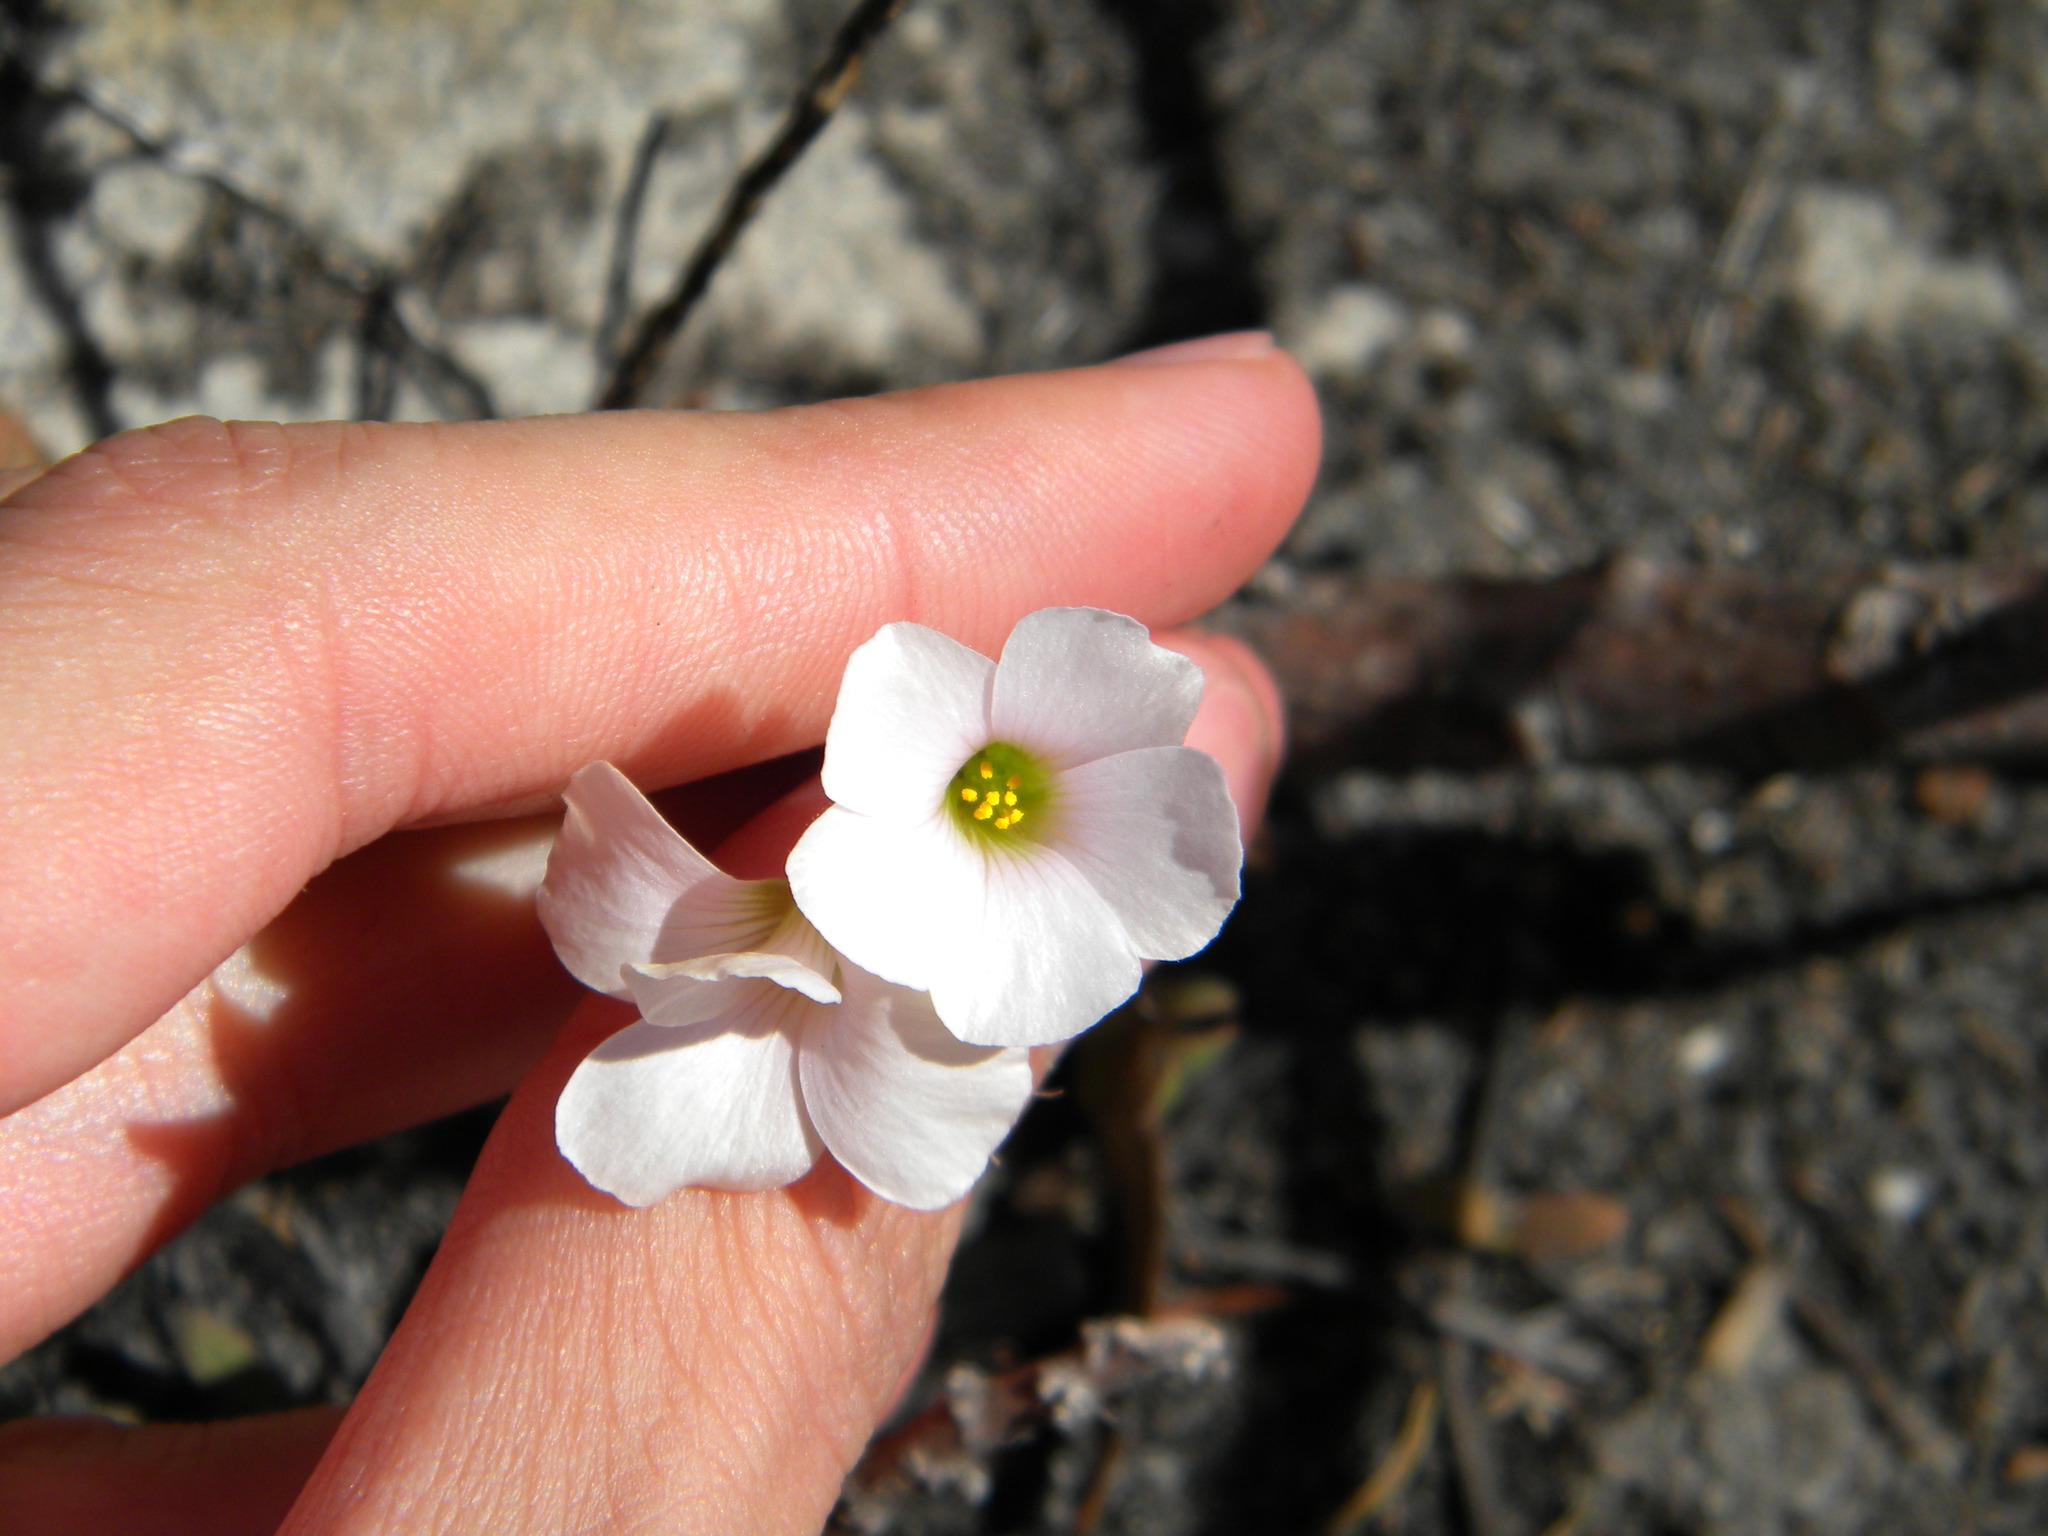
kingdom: Plantae
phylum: Tracheophyta
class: Magnoliopsida
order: Oxalidales
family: Oxalidaceae
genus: Oxalis
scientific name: Oxalis
